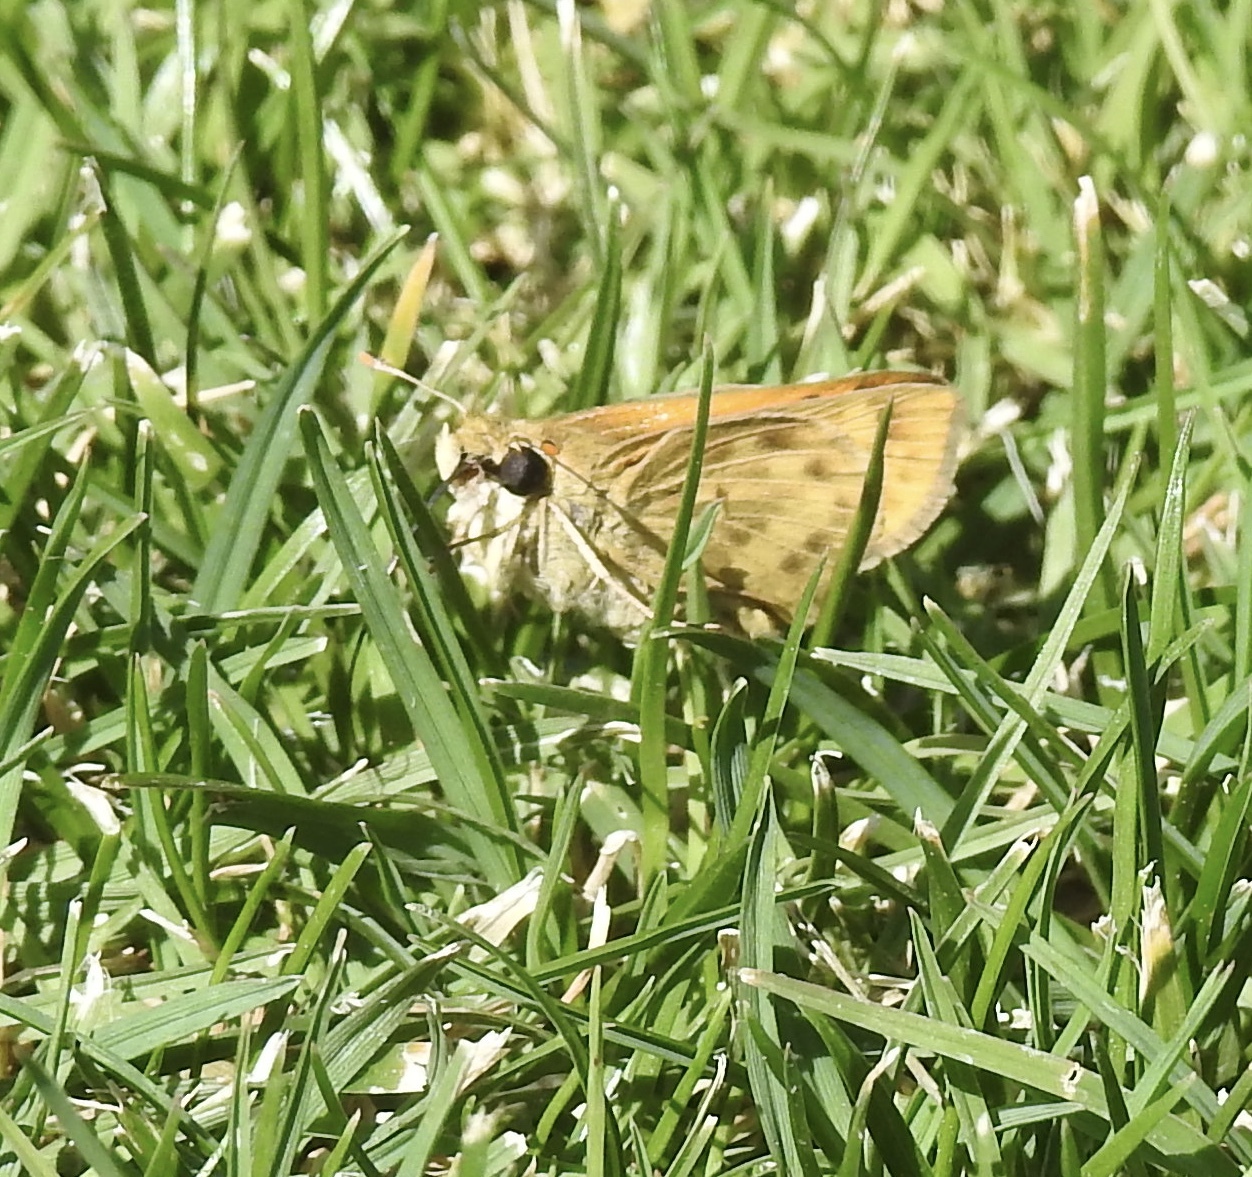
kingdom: Animalia
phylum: Arthropoda
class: Insecta
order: Lepidoptera
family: Hesperiidae
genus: Hylephila
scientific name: Hylephila phyleus
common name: Fiery skipper
